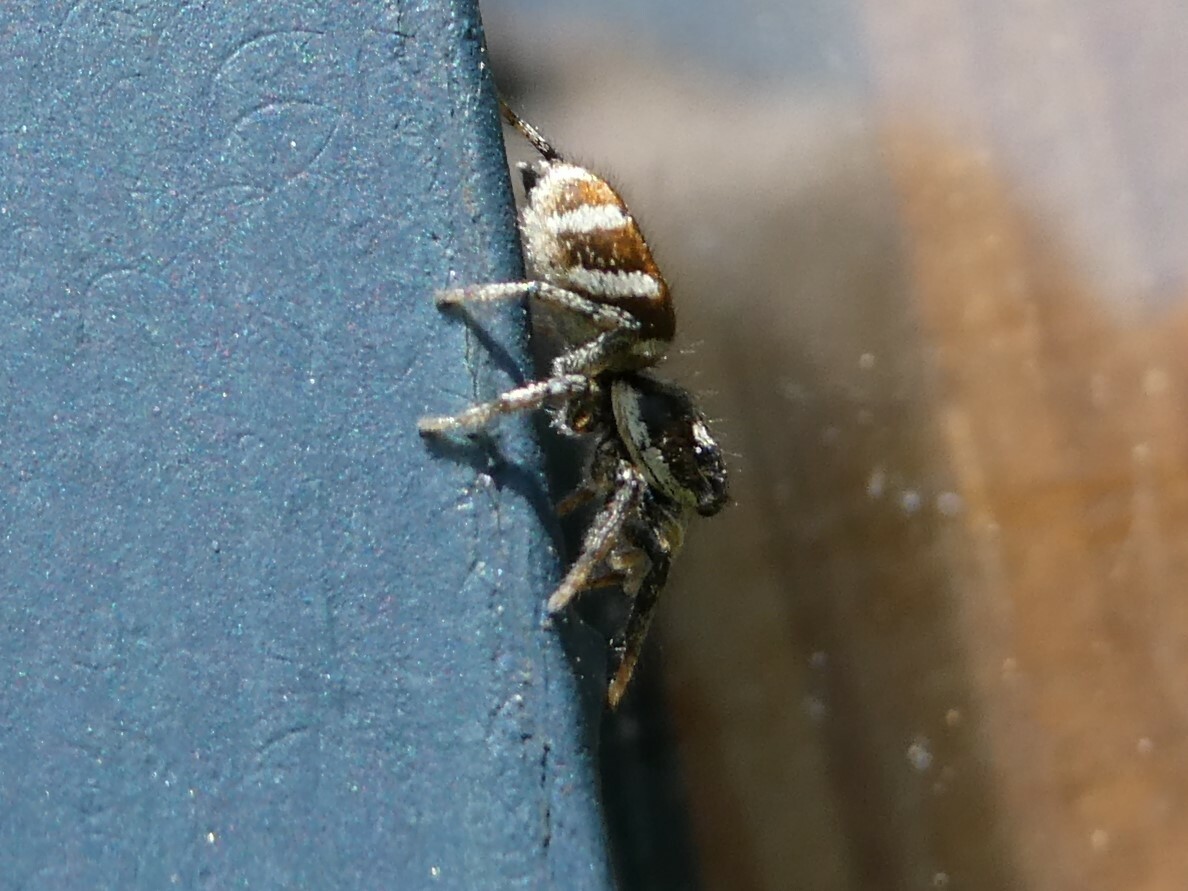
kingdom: Animalia
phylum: Arthropoda
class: Arachnida
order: Araneae
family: Salticidae
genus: Salticus
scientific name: Salticus scenicus
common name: Zebra jumper
